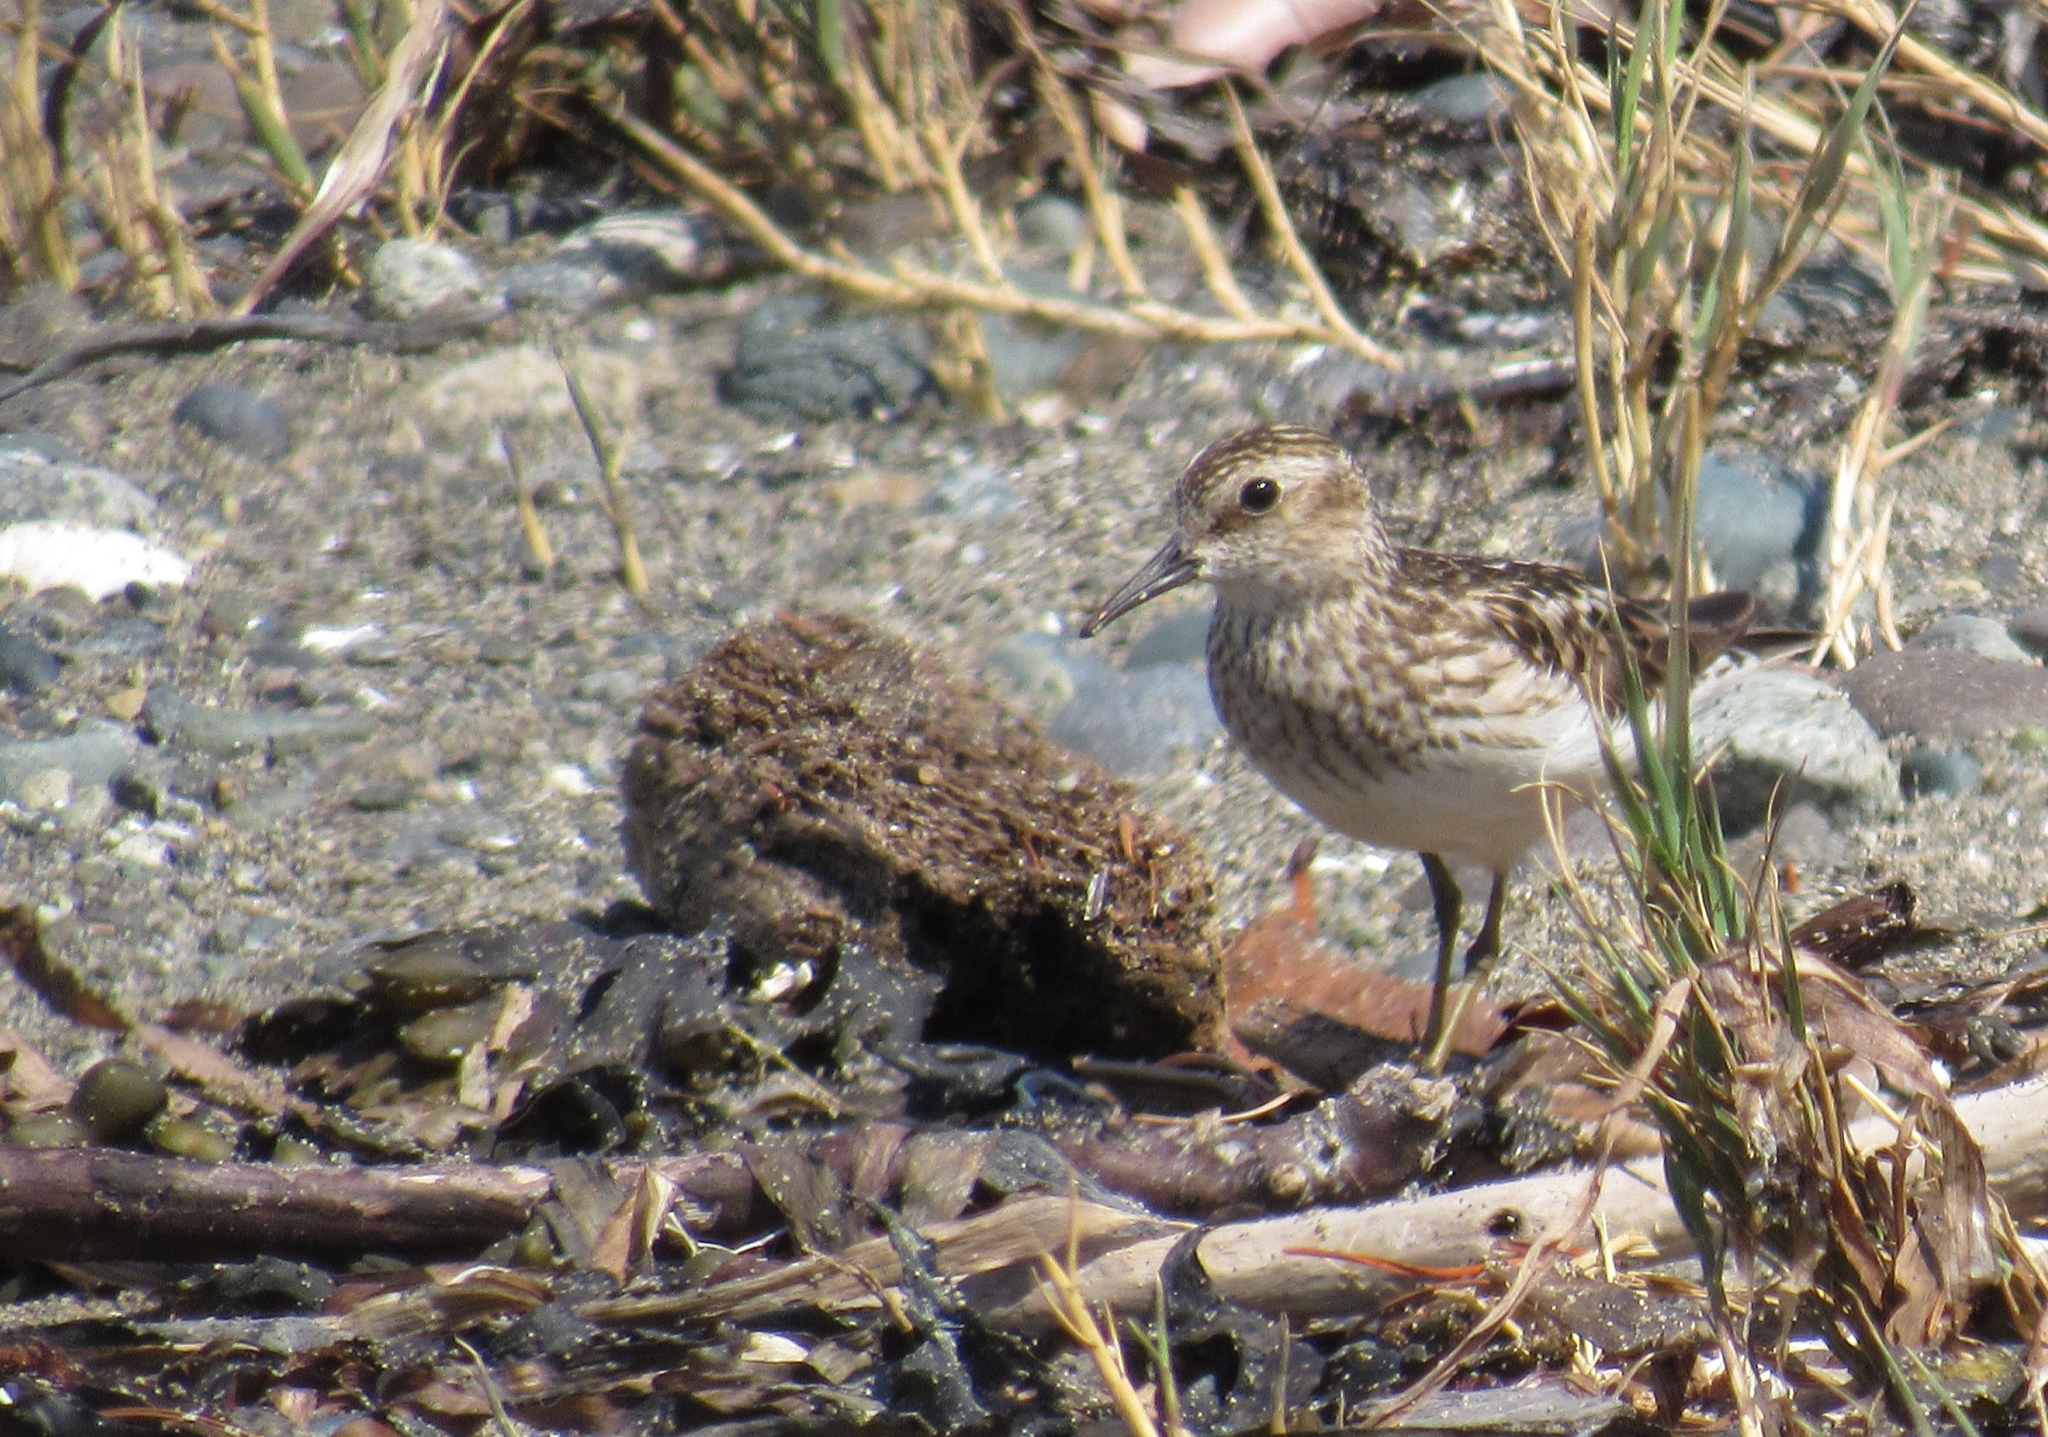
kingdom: Animalia
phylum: Chordata
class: Aves
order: Charadriiformes
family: Scolopacidae
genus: Calidris
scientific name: Calidris minutilla
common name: Least sandpiper
